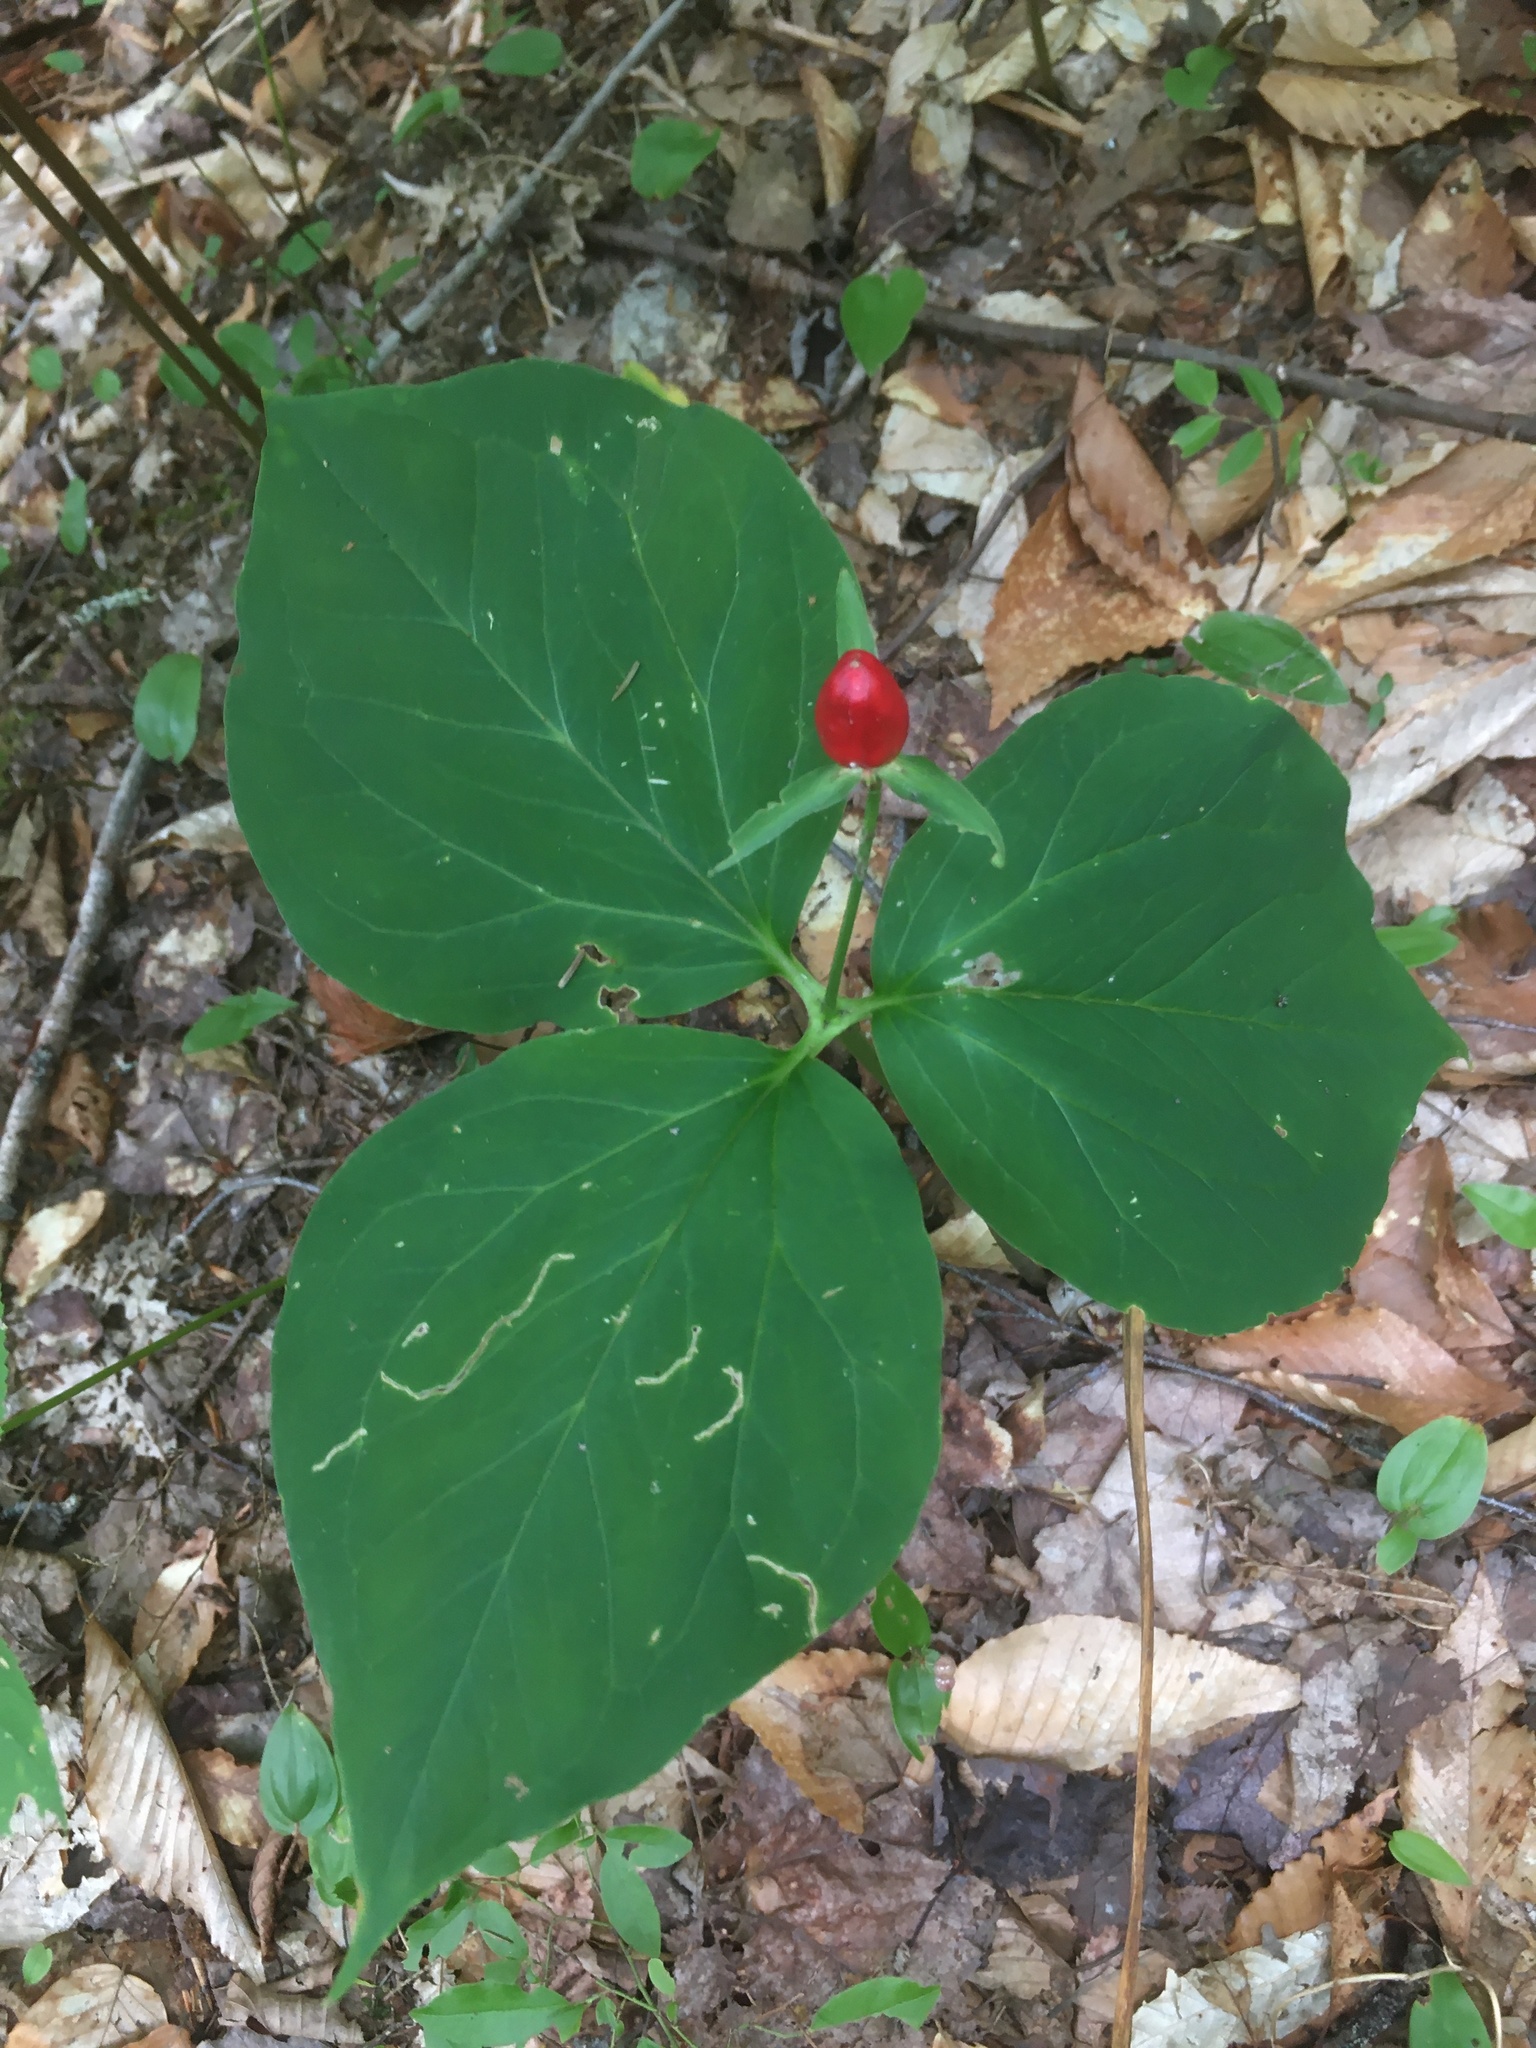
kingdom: Plantae
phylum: Tracheophyta
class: Liliopsida
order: Liliales
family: Melanthiaceae
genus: Trillium
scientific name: Trillium undulatum
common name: Paint trillium
